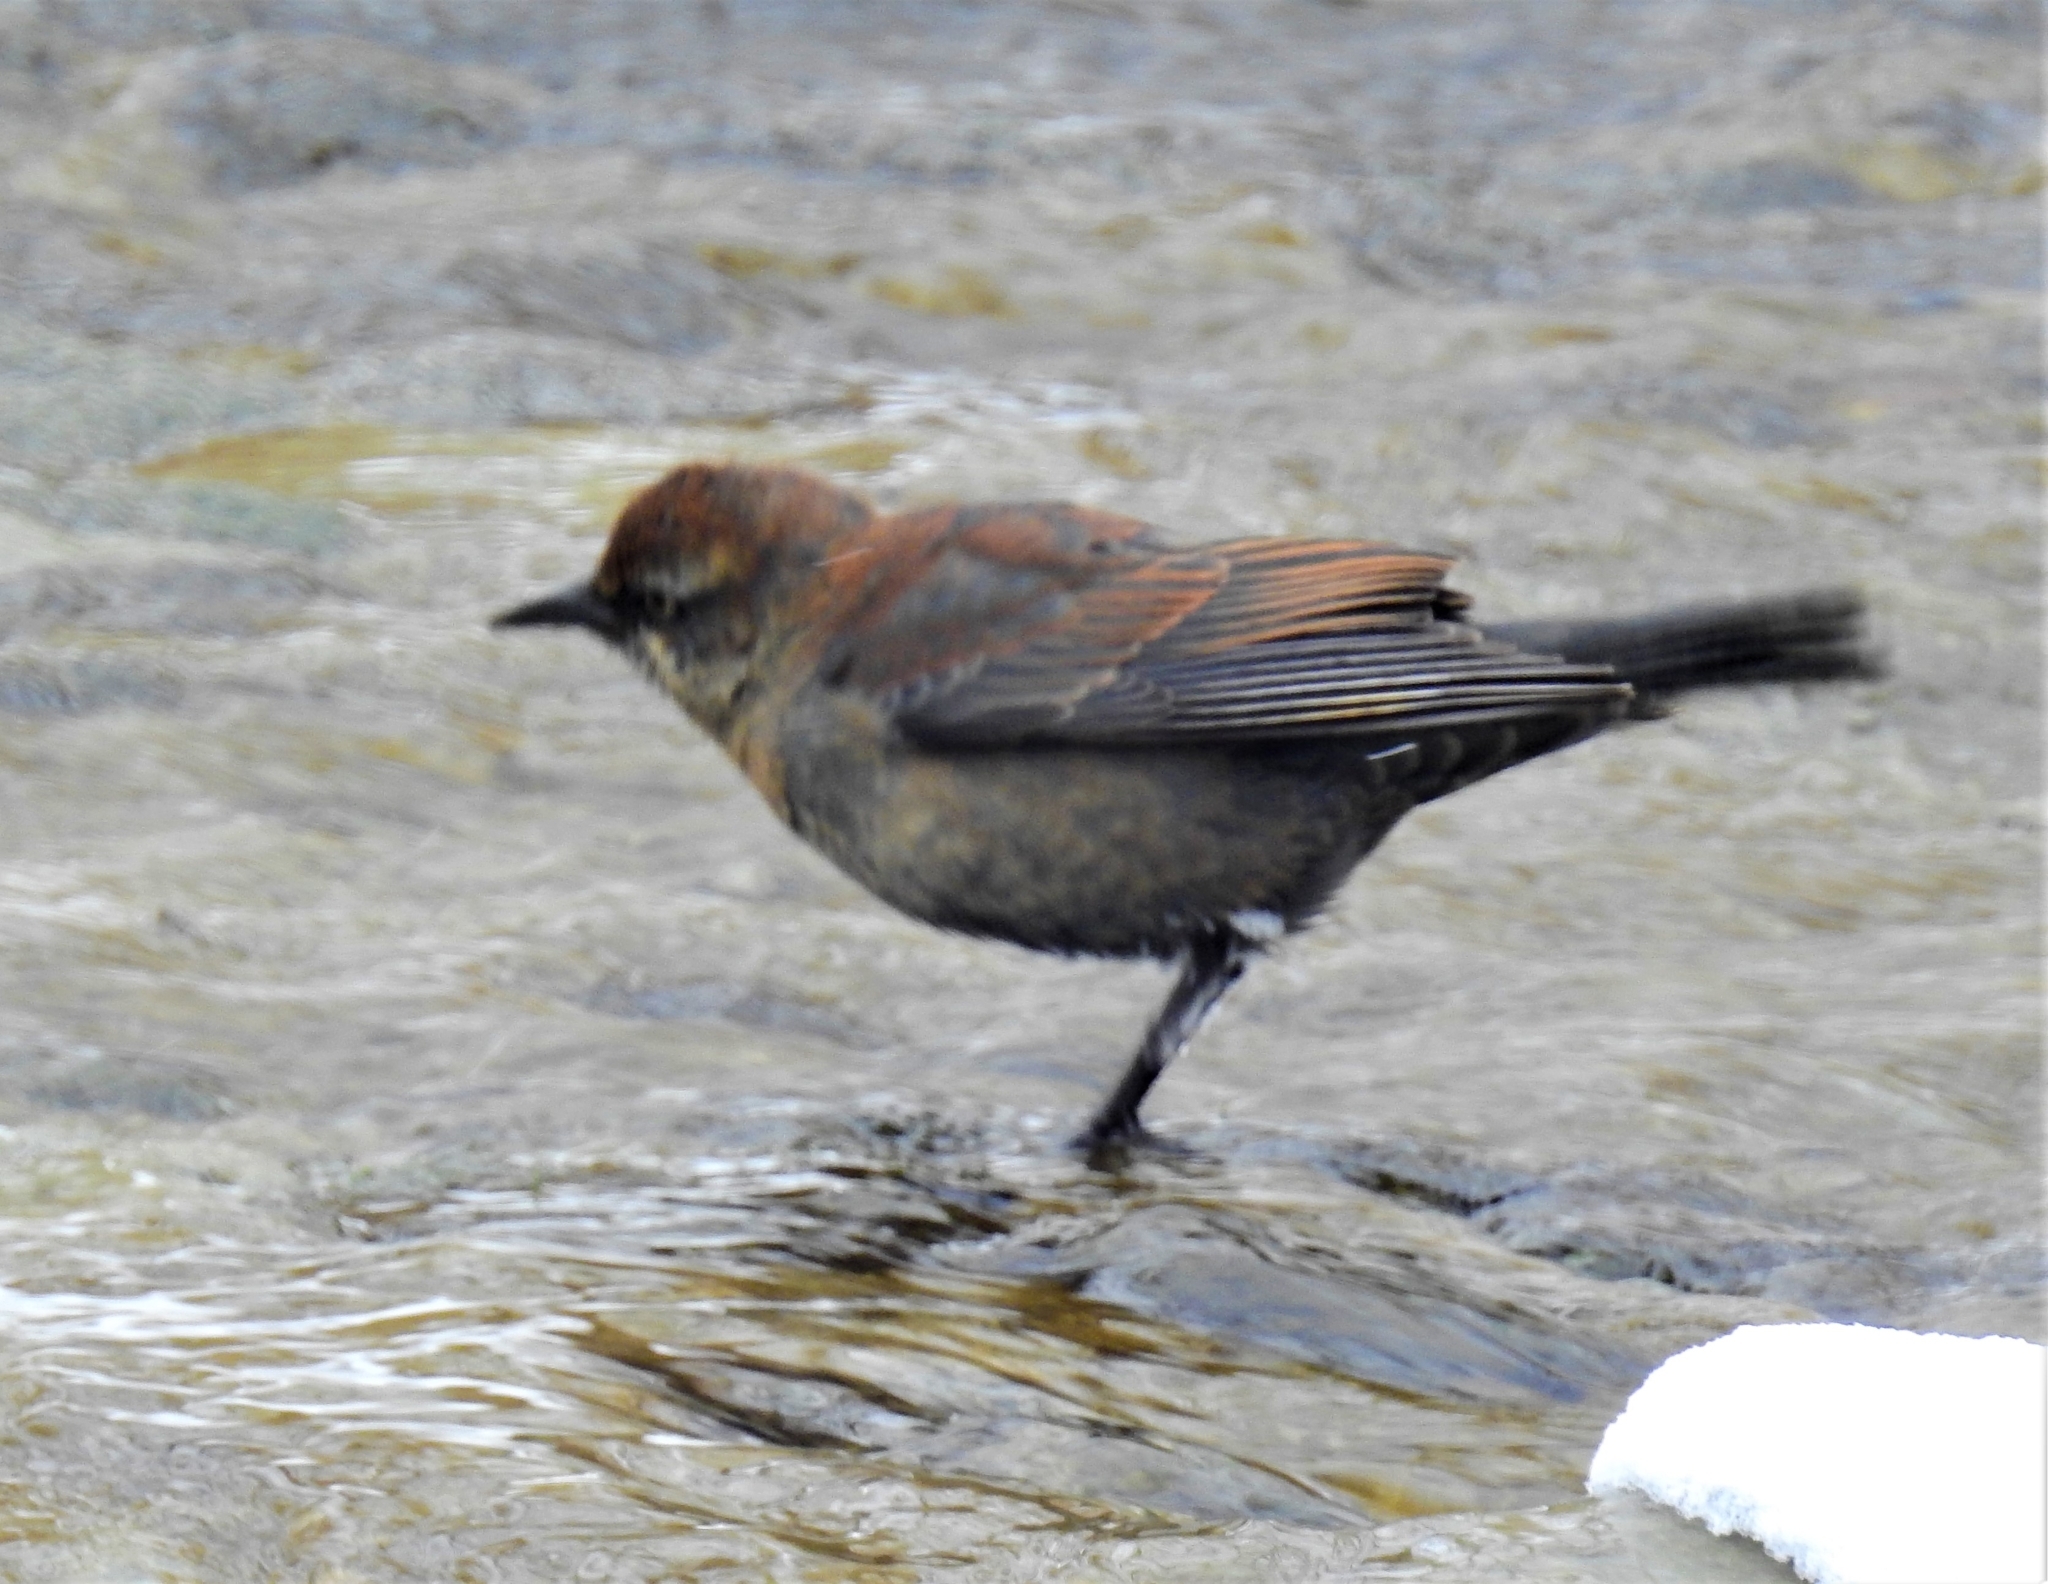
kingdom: Animalia
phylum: Chordata
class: Aves
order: Passeriformes
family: Icteridae
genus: Euphagus
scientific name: Euphagus carolinus
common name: Rusty blackbird
